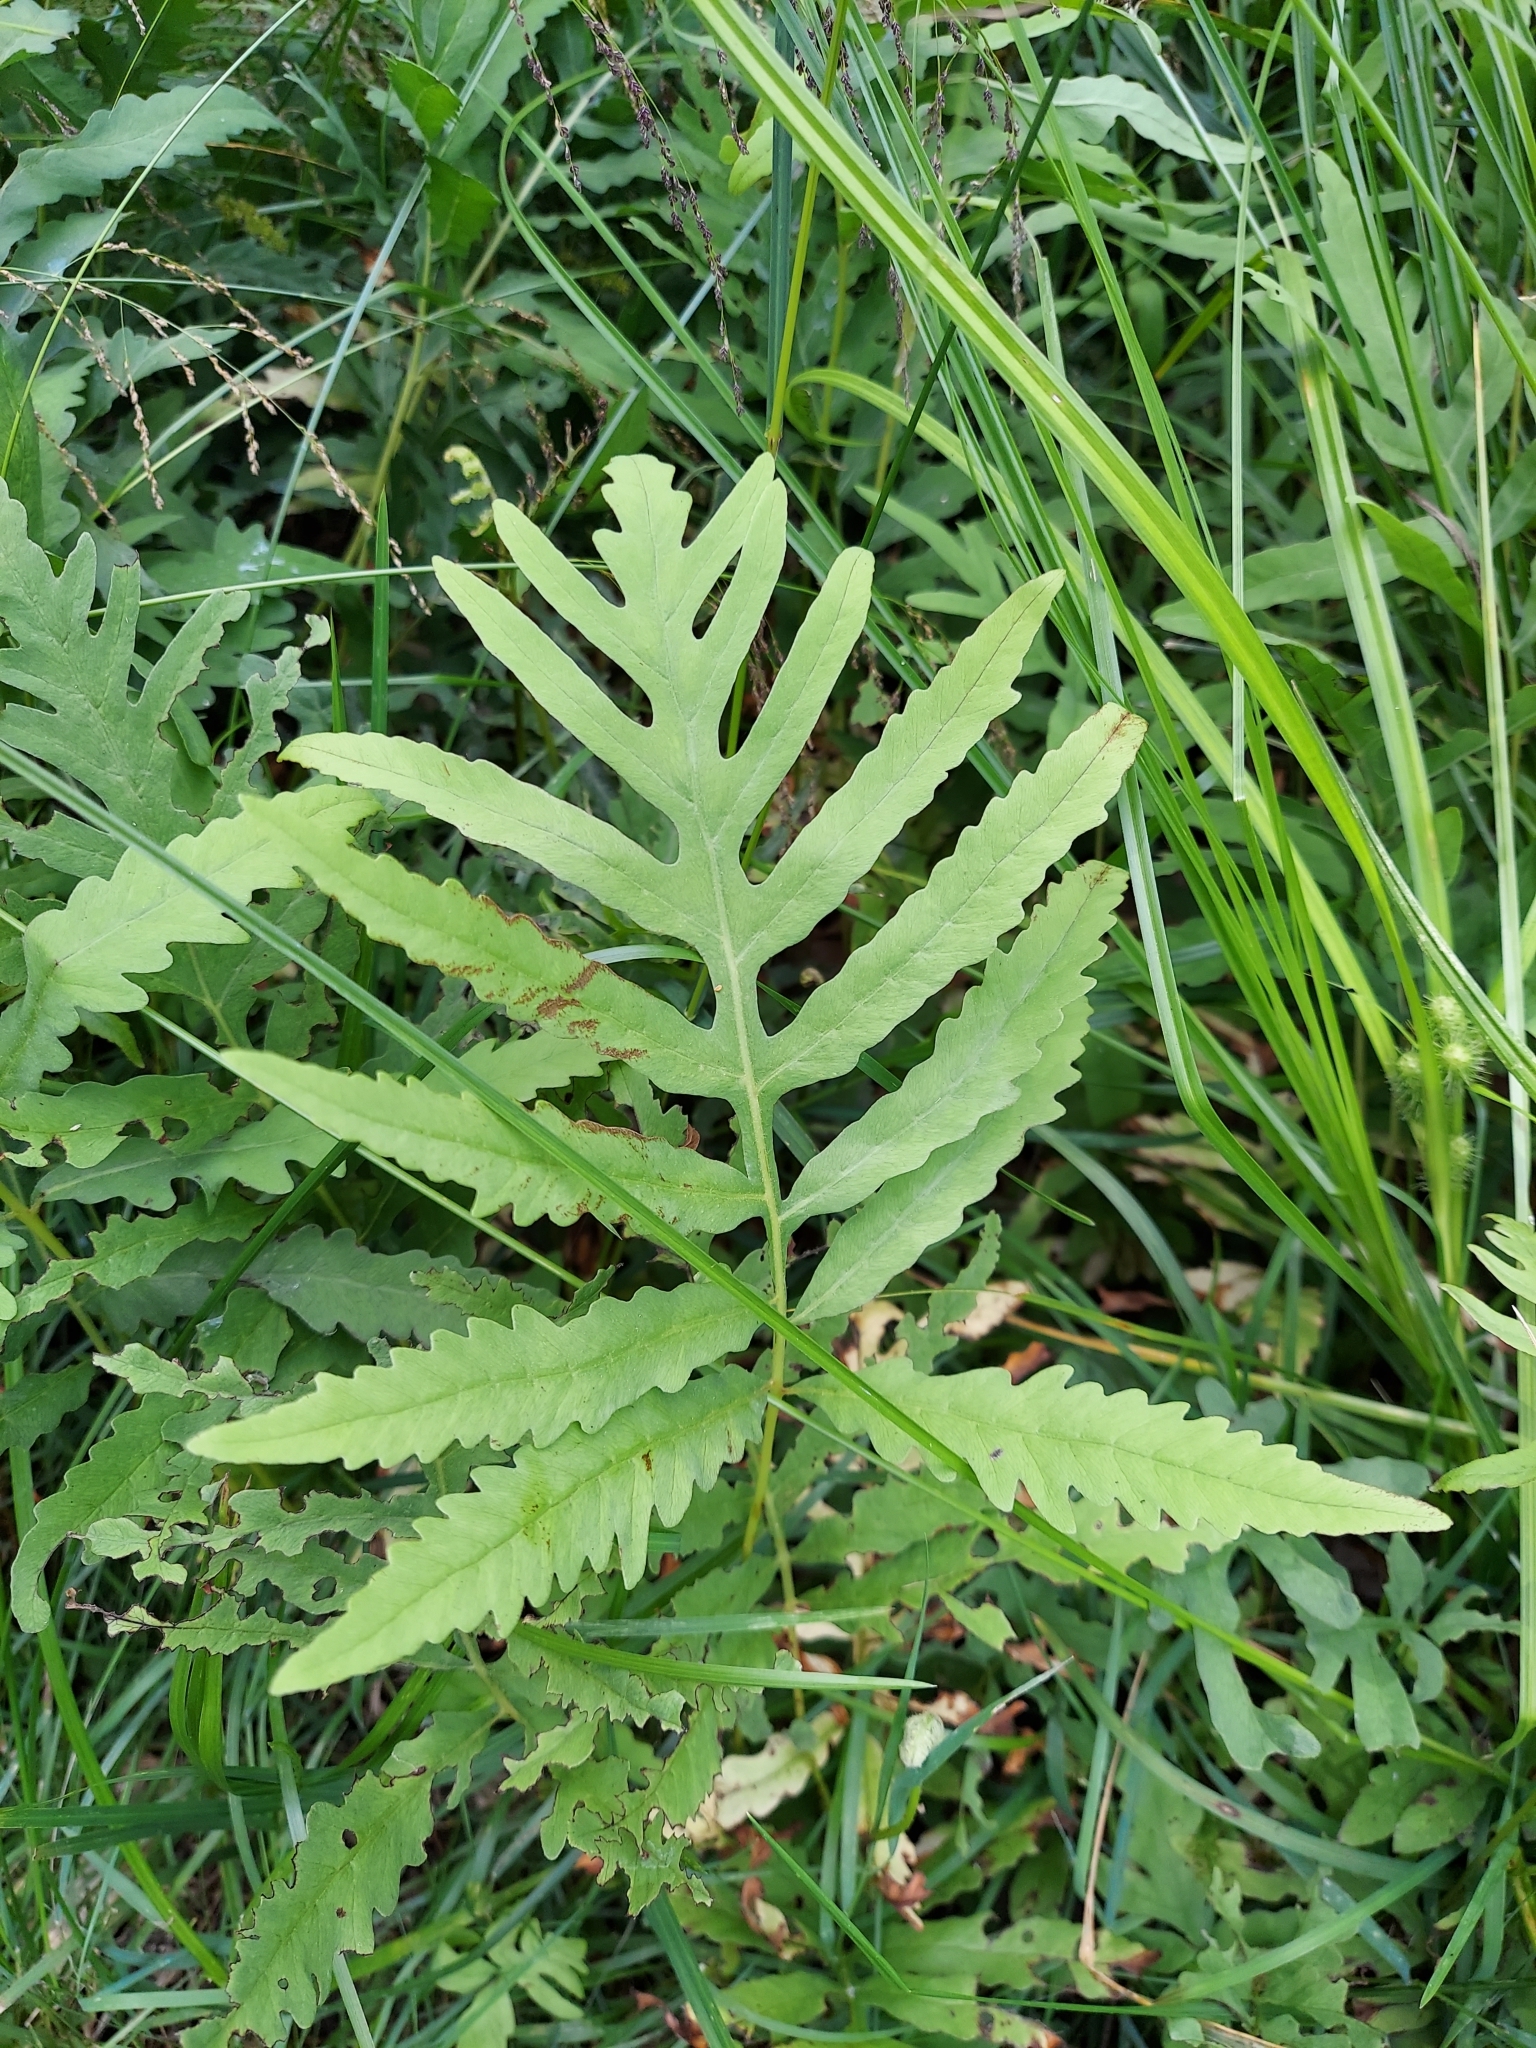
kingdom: Plantae
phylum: Tracheophyta
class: Polypodiopsida
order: Polypodiales
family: Onocleaceae
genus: Onoclea
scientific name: Onoclea sensibilis
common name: Sensitive fern
